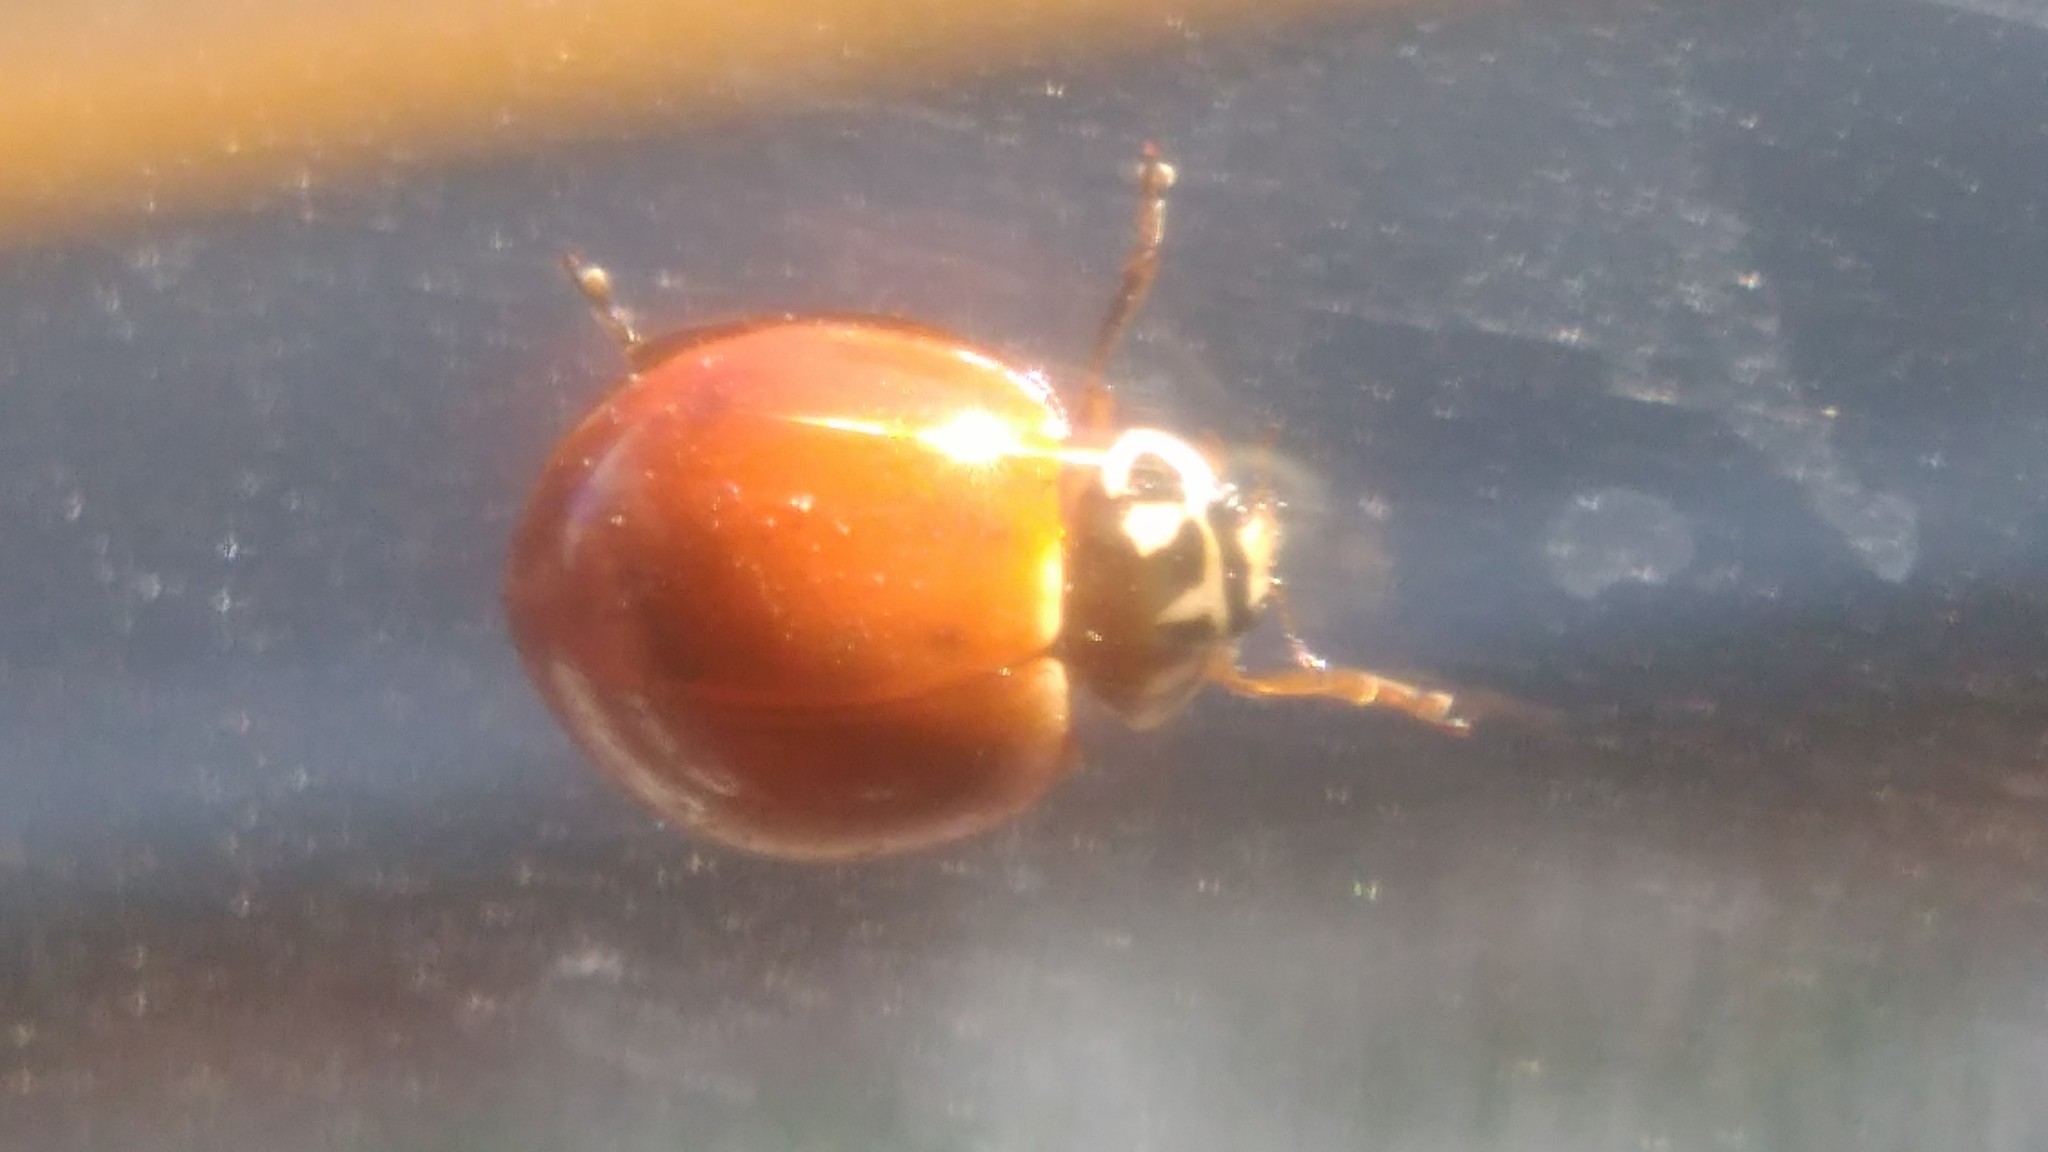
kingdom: Animalia
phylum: Arthropoda
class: Insecta
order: Coleoptera
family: Coccinellidae
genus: Cycloneda
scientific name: Cycloneda sanguinea
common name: Ladybird beetle
